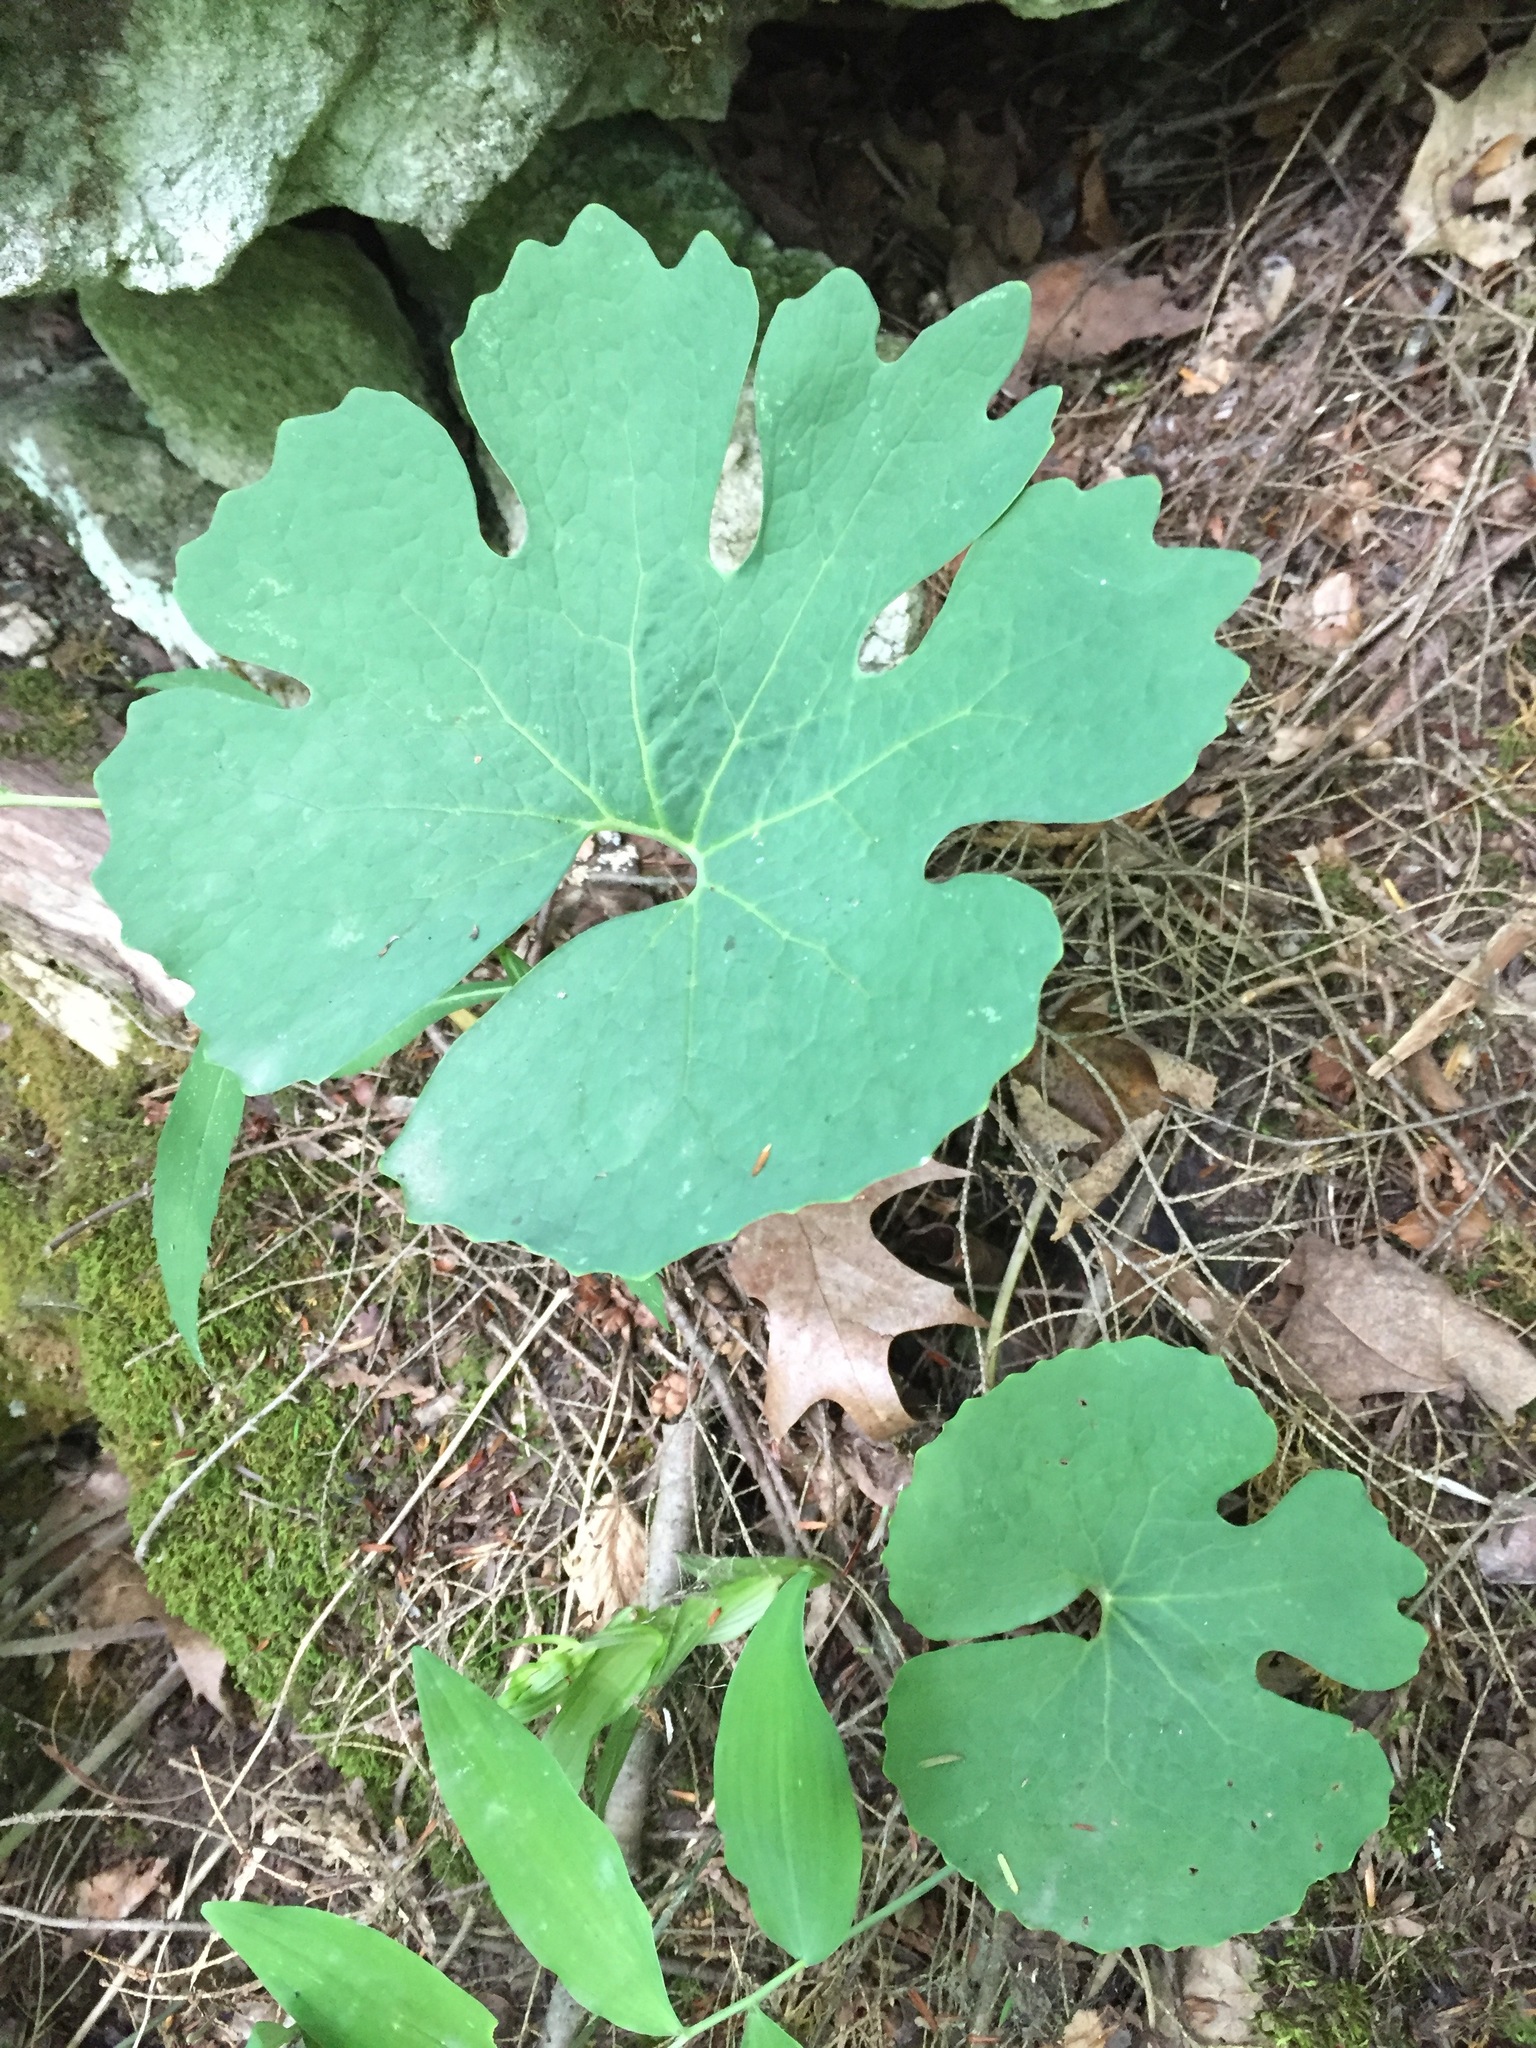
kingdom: Plantae
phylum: Tracheophyta
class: Magnoliopsida
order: Ranunculales
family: Papaveraceae
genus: Sanguinaria
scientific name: Sanguinaria canadensis
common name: Bloodroot
